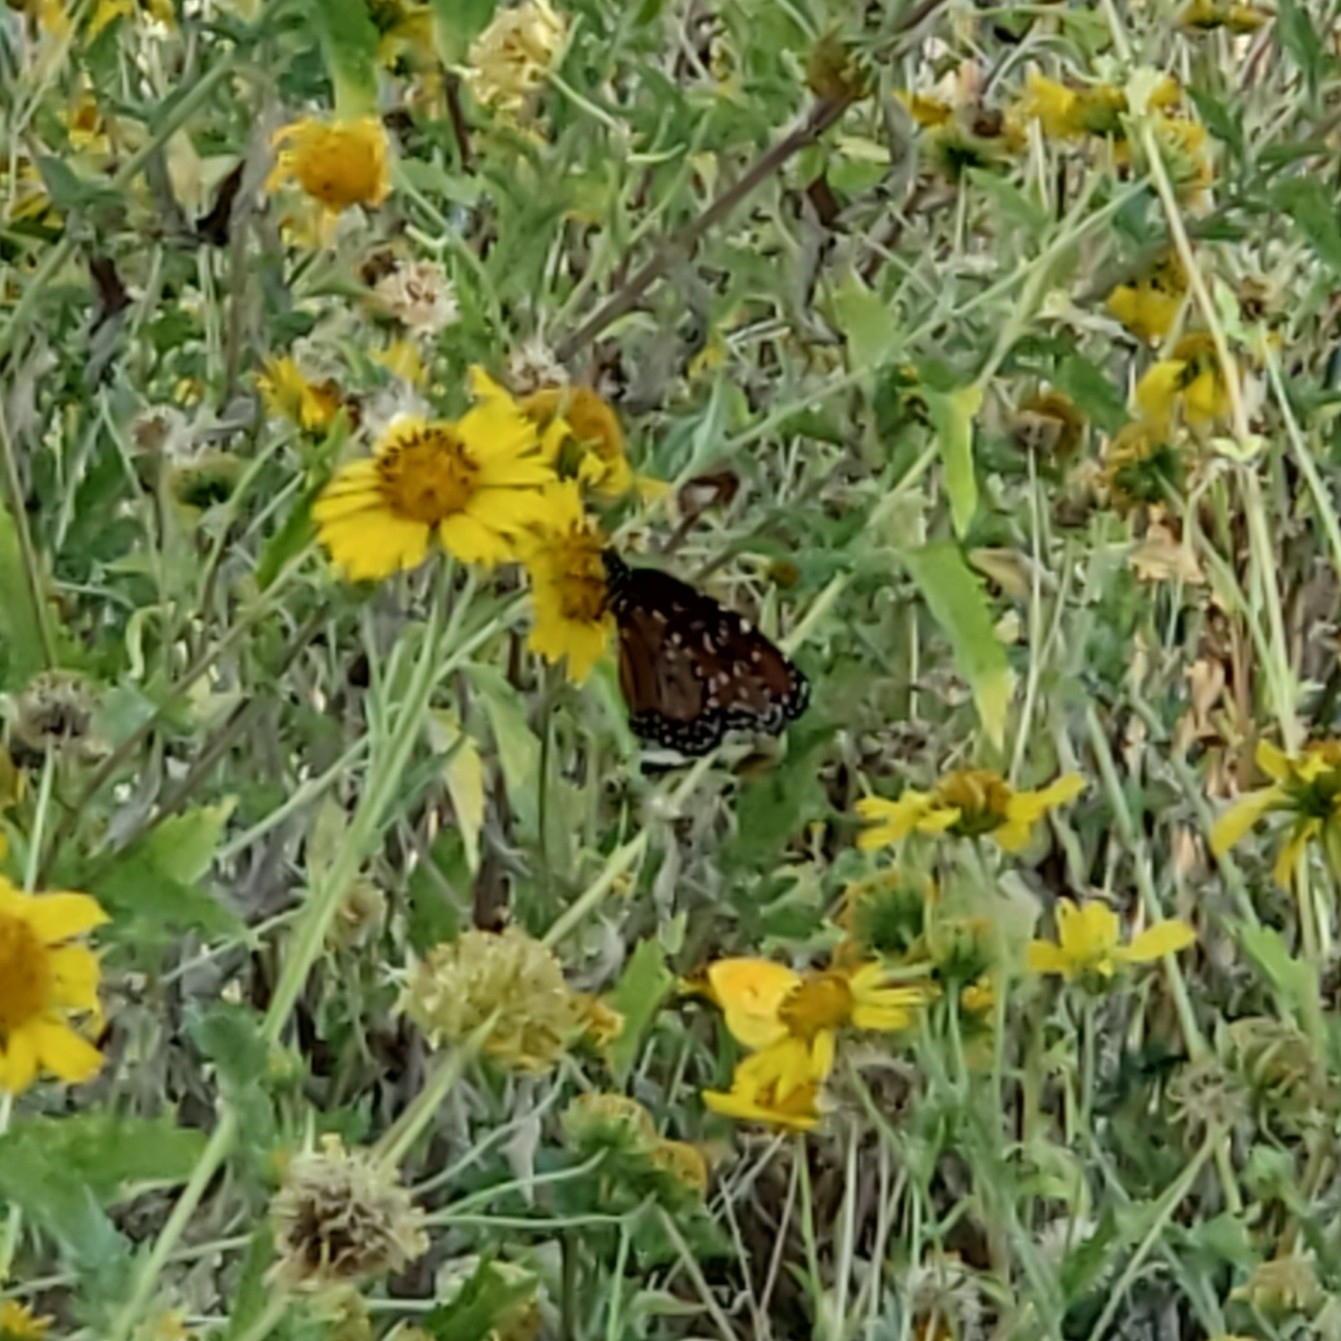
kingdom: Animalia
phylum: Arthropoda
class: Insecta
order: Lepidoptera
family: Nymphalidae
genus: Danaus
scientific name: Danaus gilippus
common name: Queen
